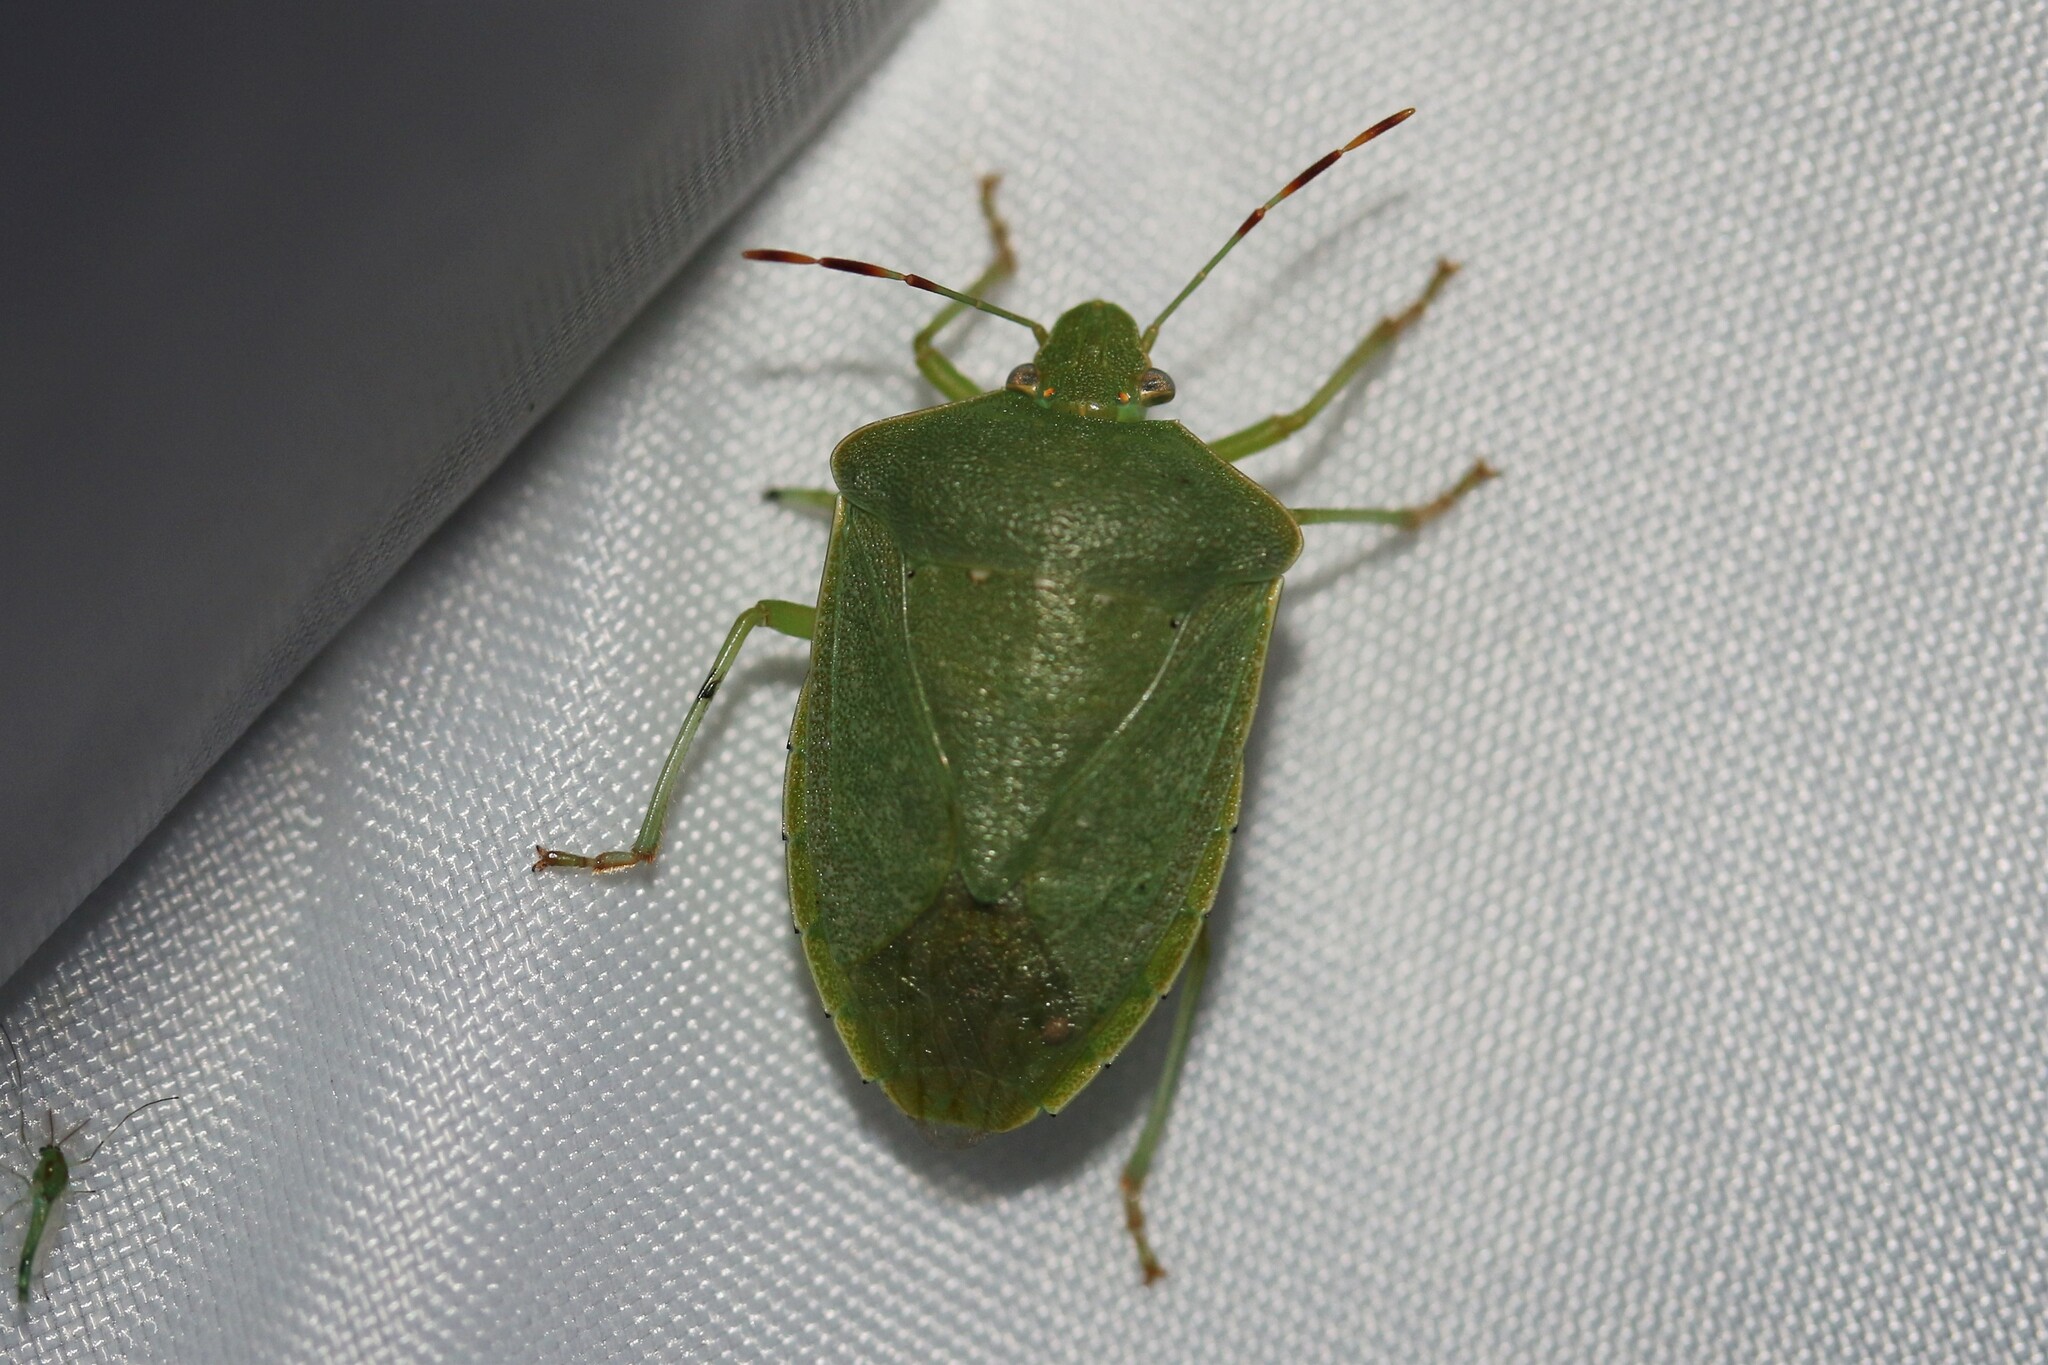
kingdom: Animalia
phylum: Arthropoda
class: Insecta
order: Hemiptera
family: Pentatomidae
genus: Nezara
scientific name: Nezara viridula
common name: Southern green stink bug
